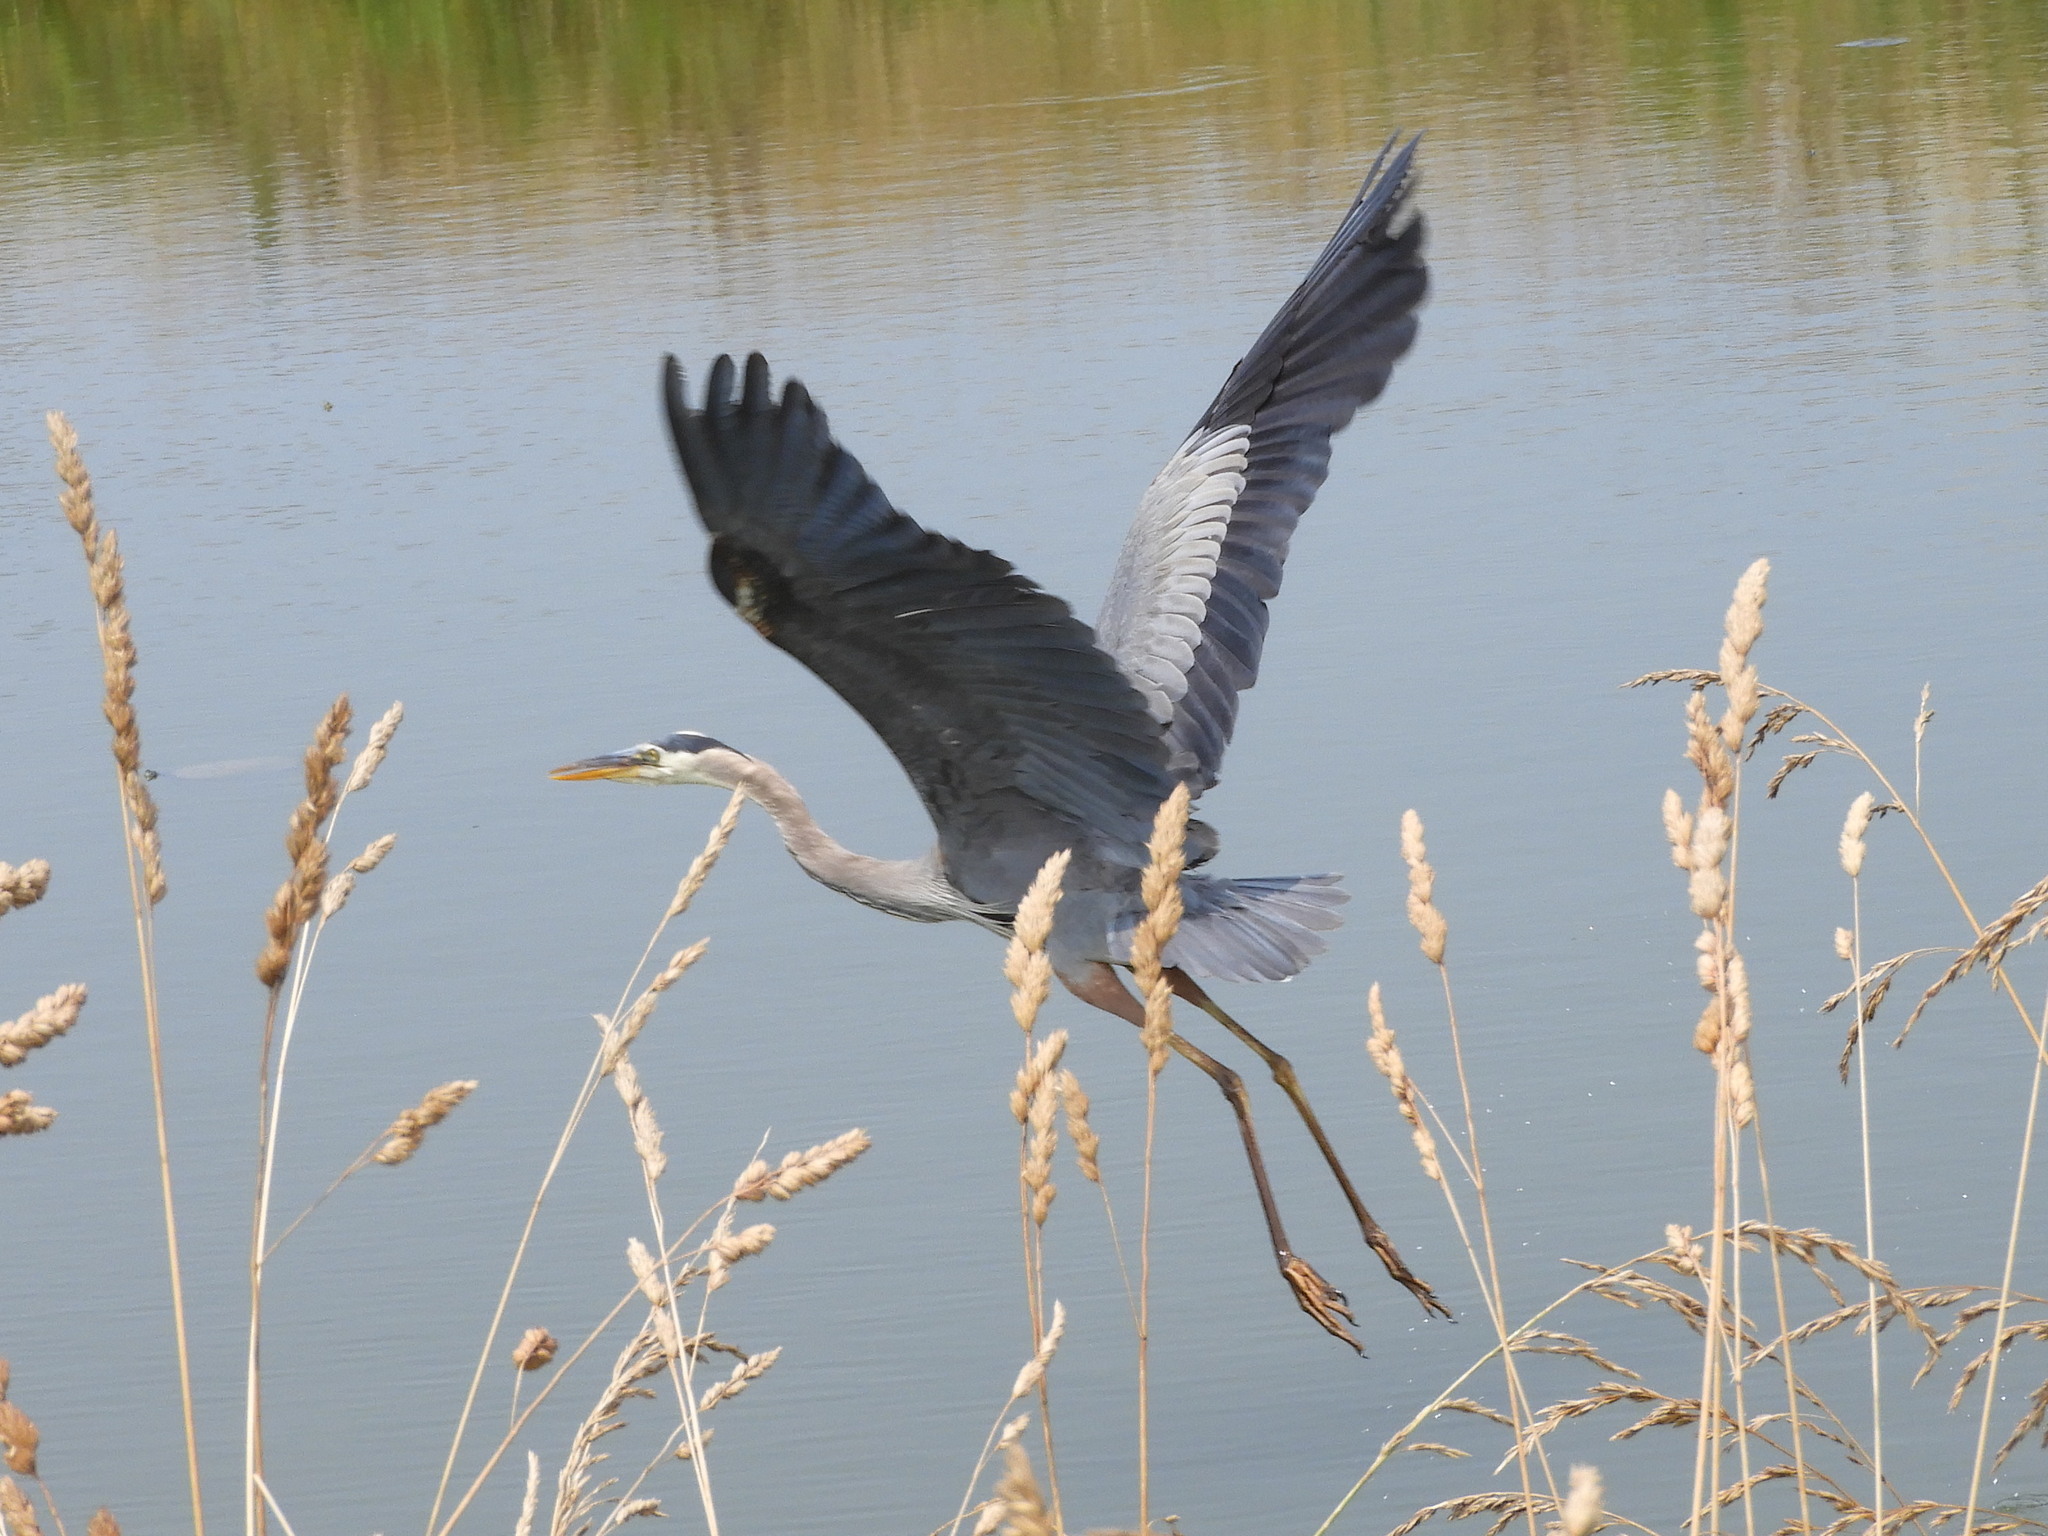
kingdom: Animalia
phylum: Chordata
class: Aves
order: Pelecaniformes
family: Ardeidae
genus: Ardea
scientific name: Ardea herodias
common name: Great blue heron
